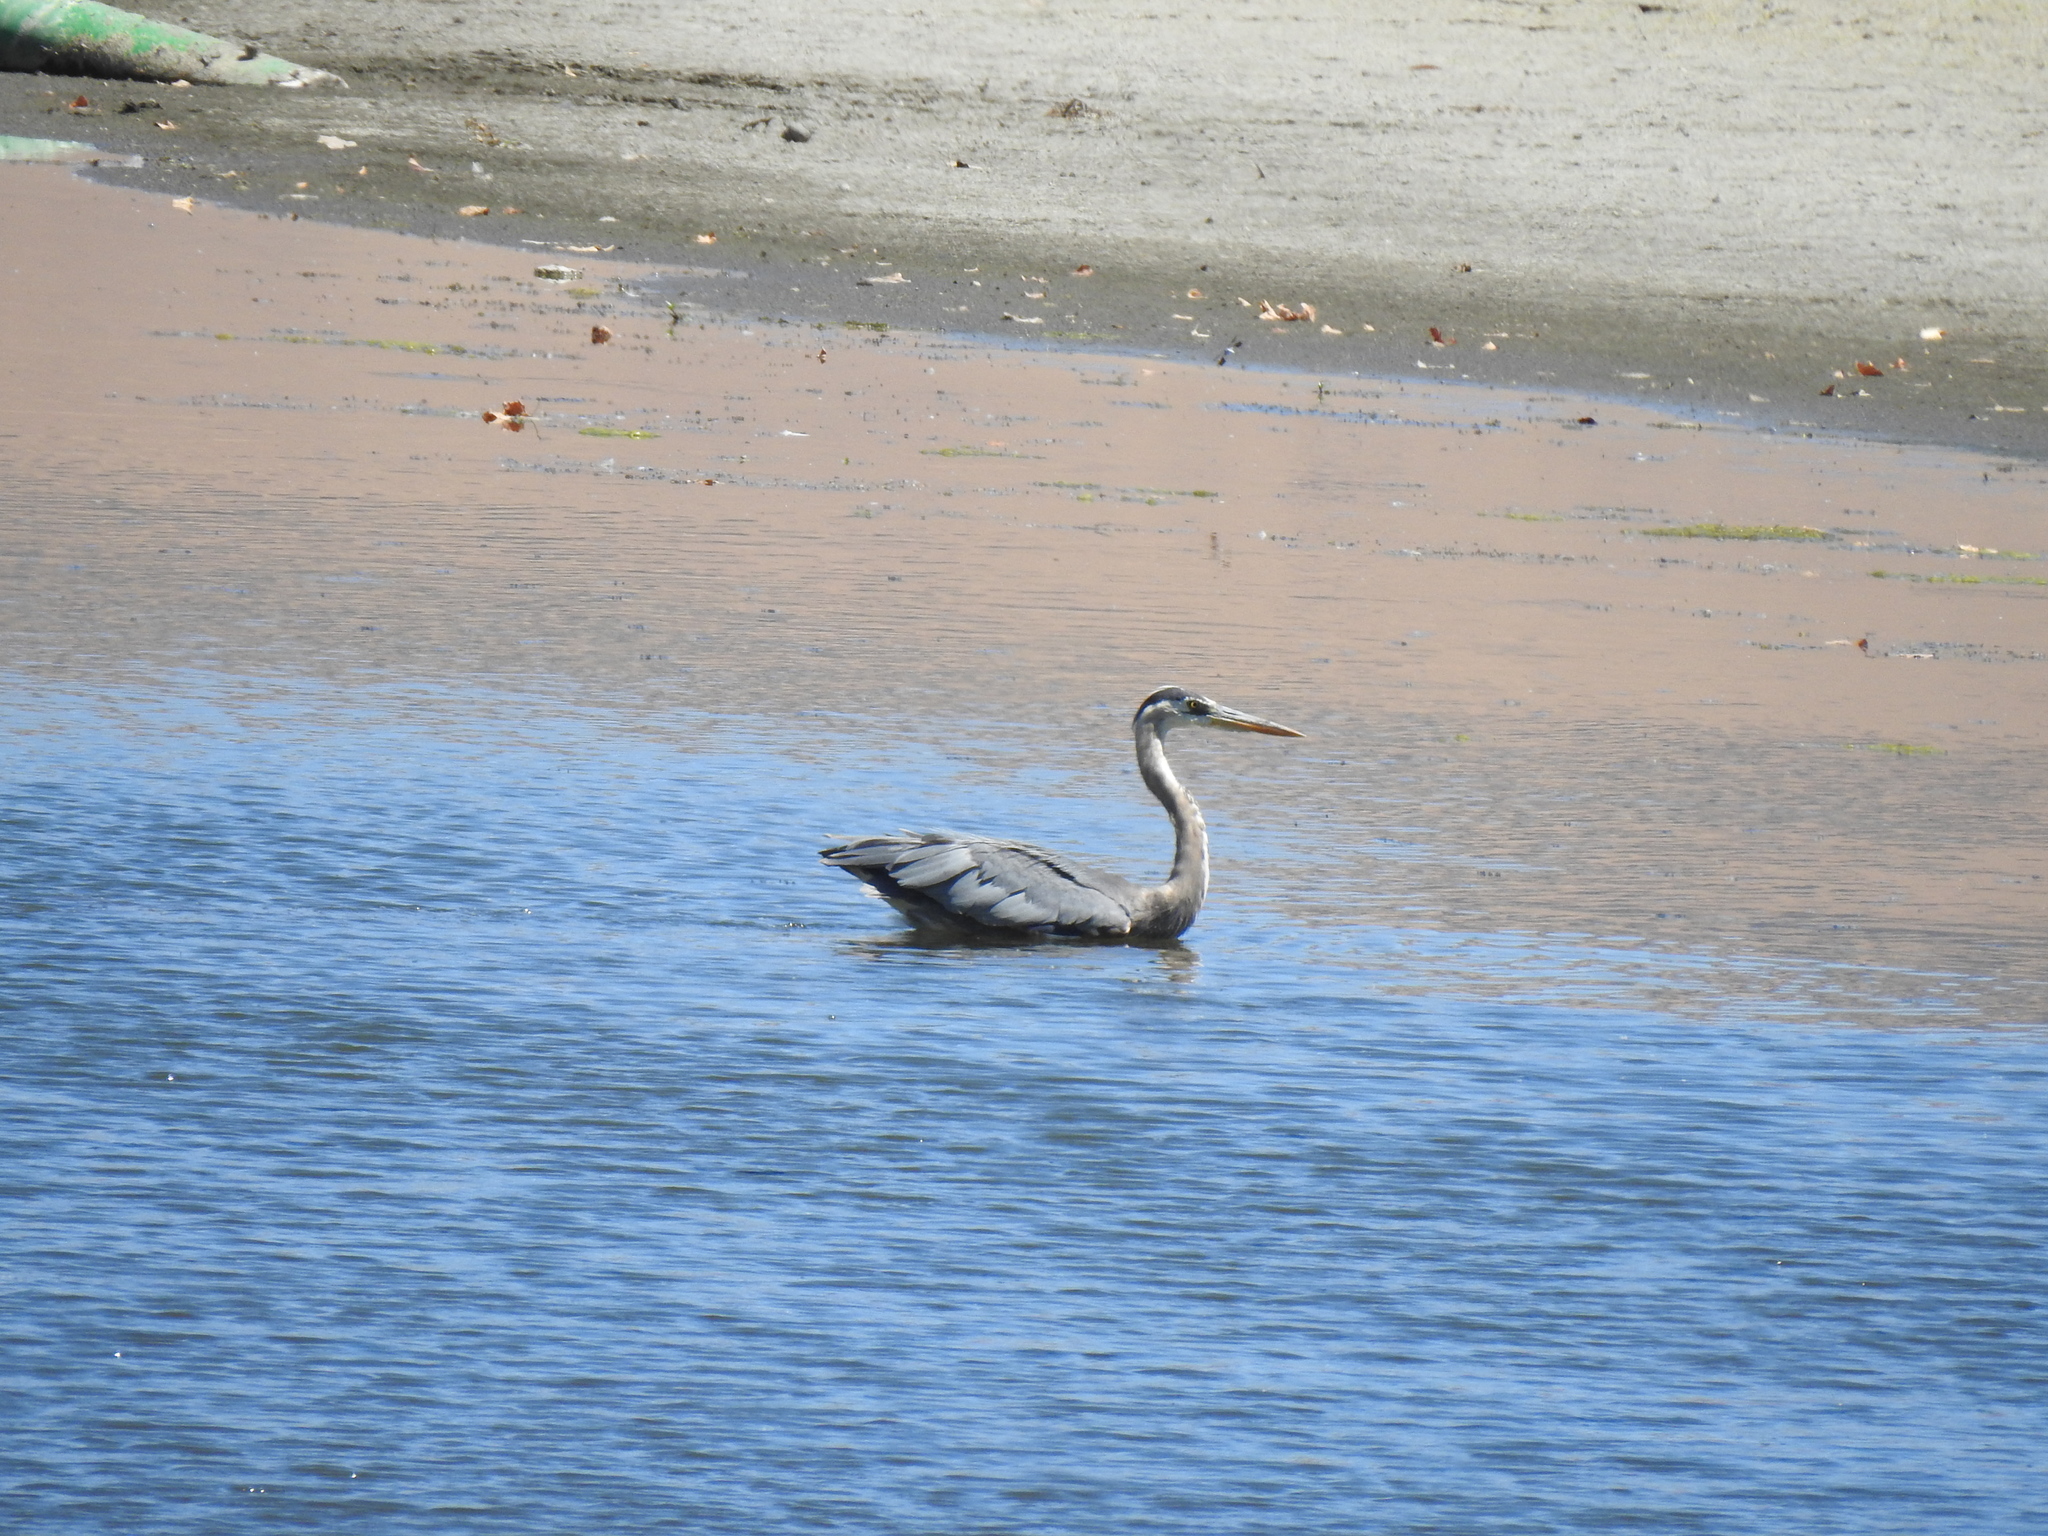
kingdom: Animalia
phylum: Chordata
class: Aves
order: Pelecaniformes
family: Ardeidae
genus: Ardea
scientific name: Ardea herodias
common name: Great blue heron
